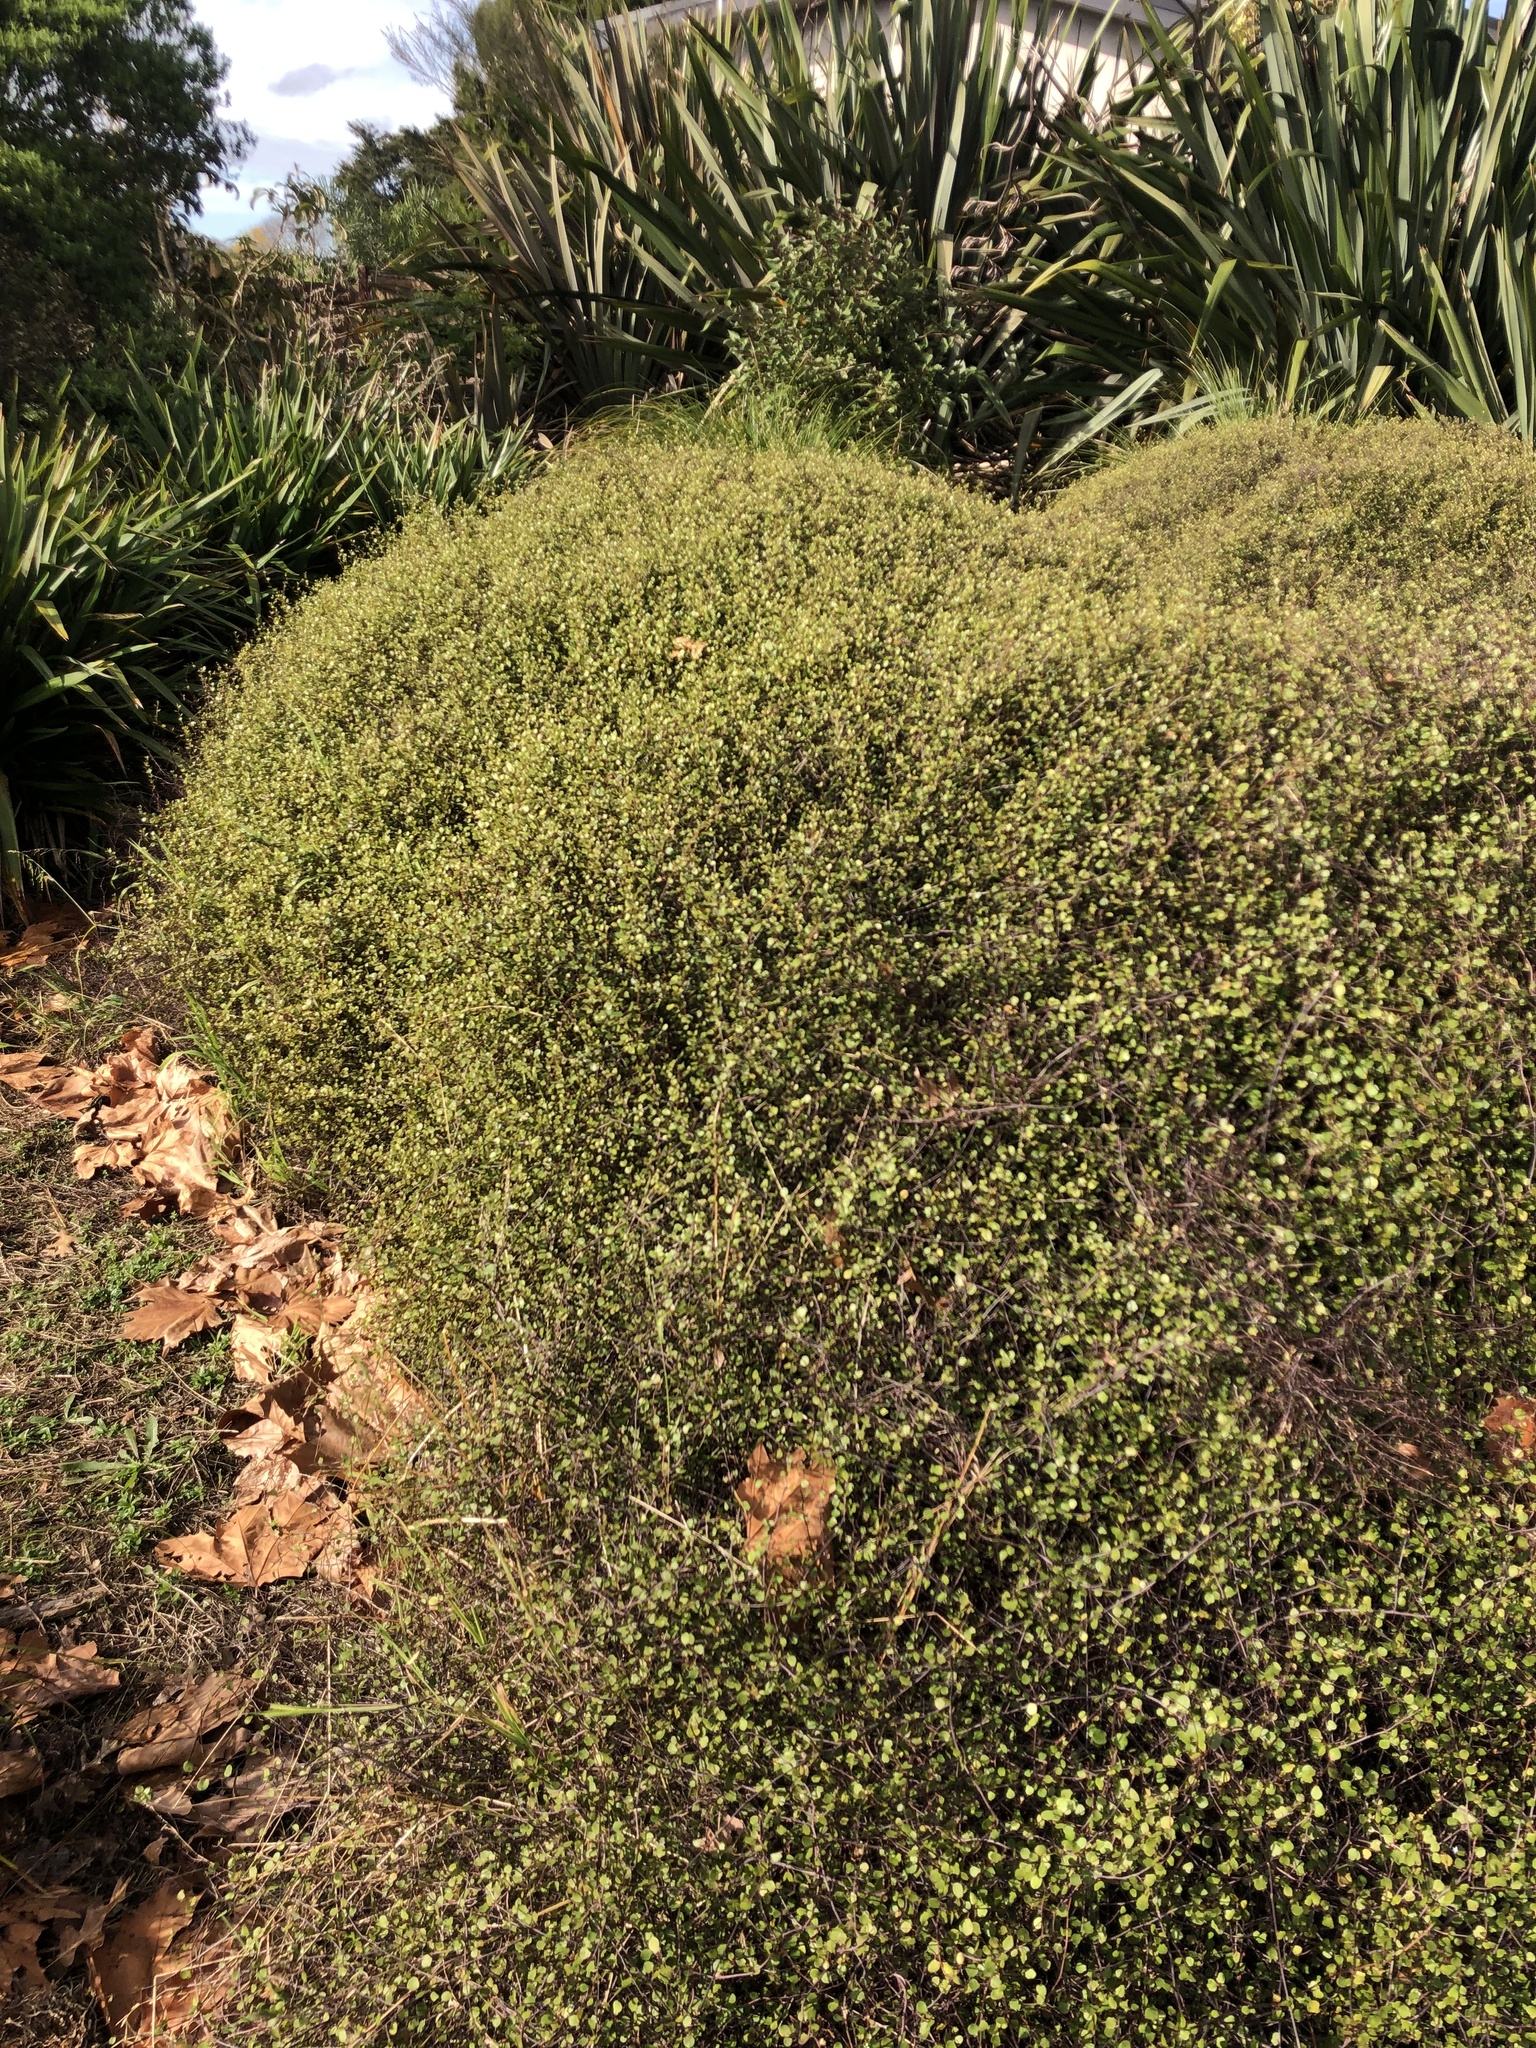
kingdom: Plantae
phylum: Tracheophyta
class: Magnoliopsida
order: Caryophyllales
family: Polygonaceae
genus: Muehlenbeckia
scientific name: Muehlenbeckia complexa
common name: Wireplant
